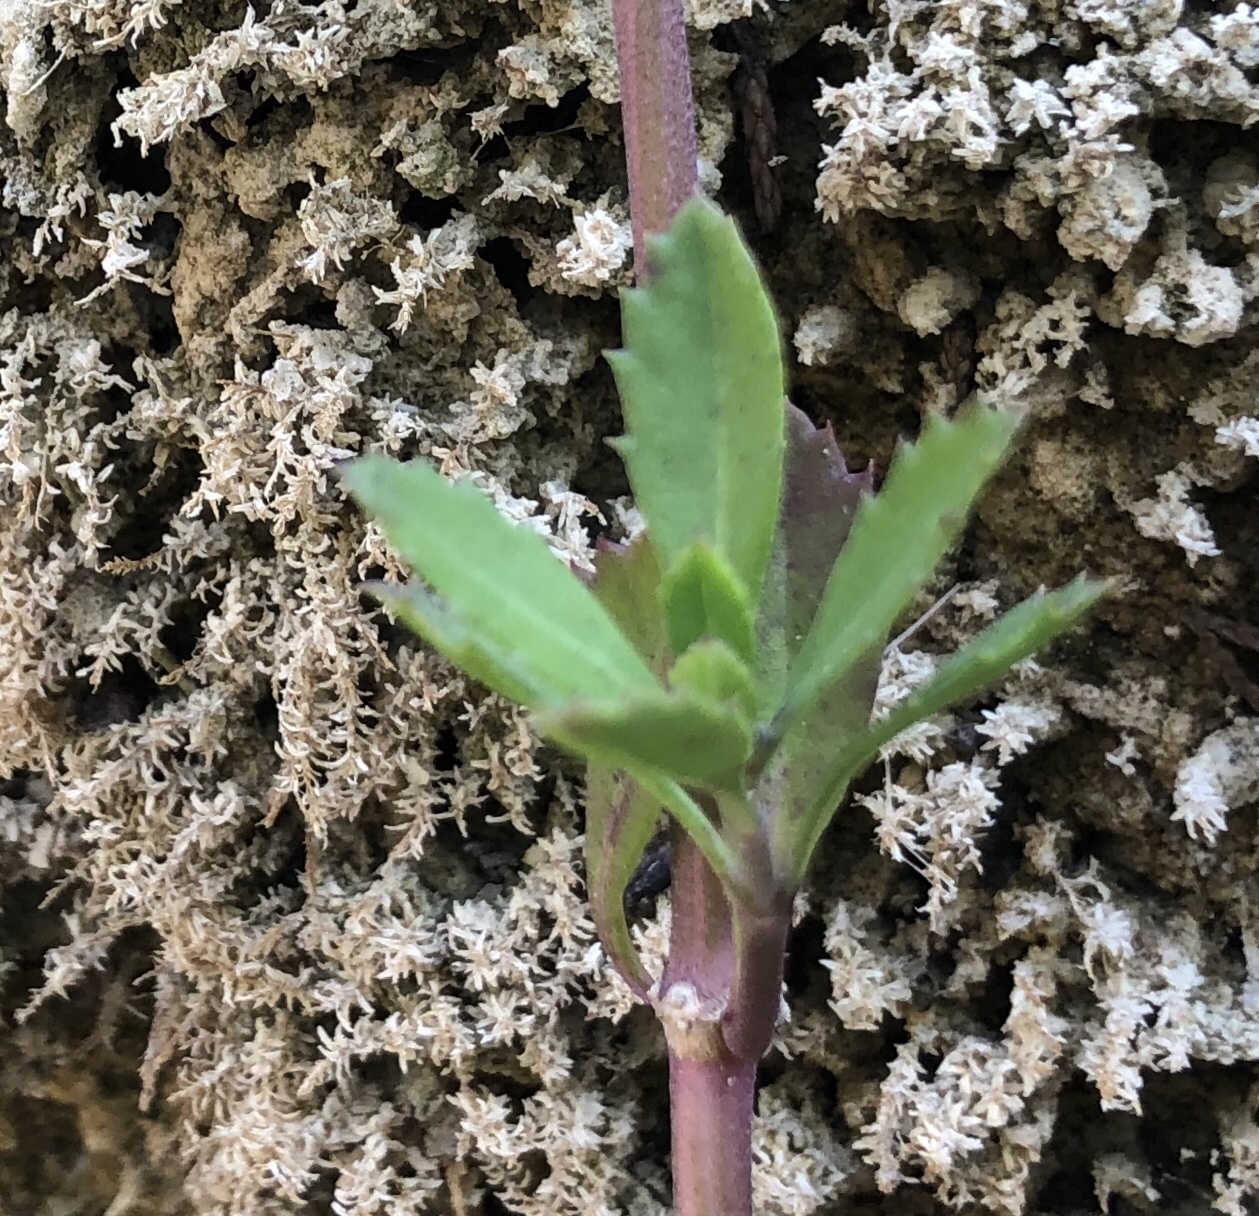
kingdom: Plantae
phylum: Tracheophyta
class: Magnoliopsida
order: Lamiales
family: Verbenaceae
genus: Phyla
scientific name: Phyla nodiflora
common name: Frogfruit
